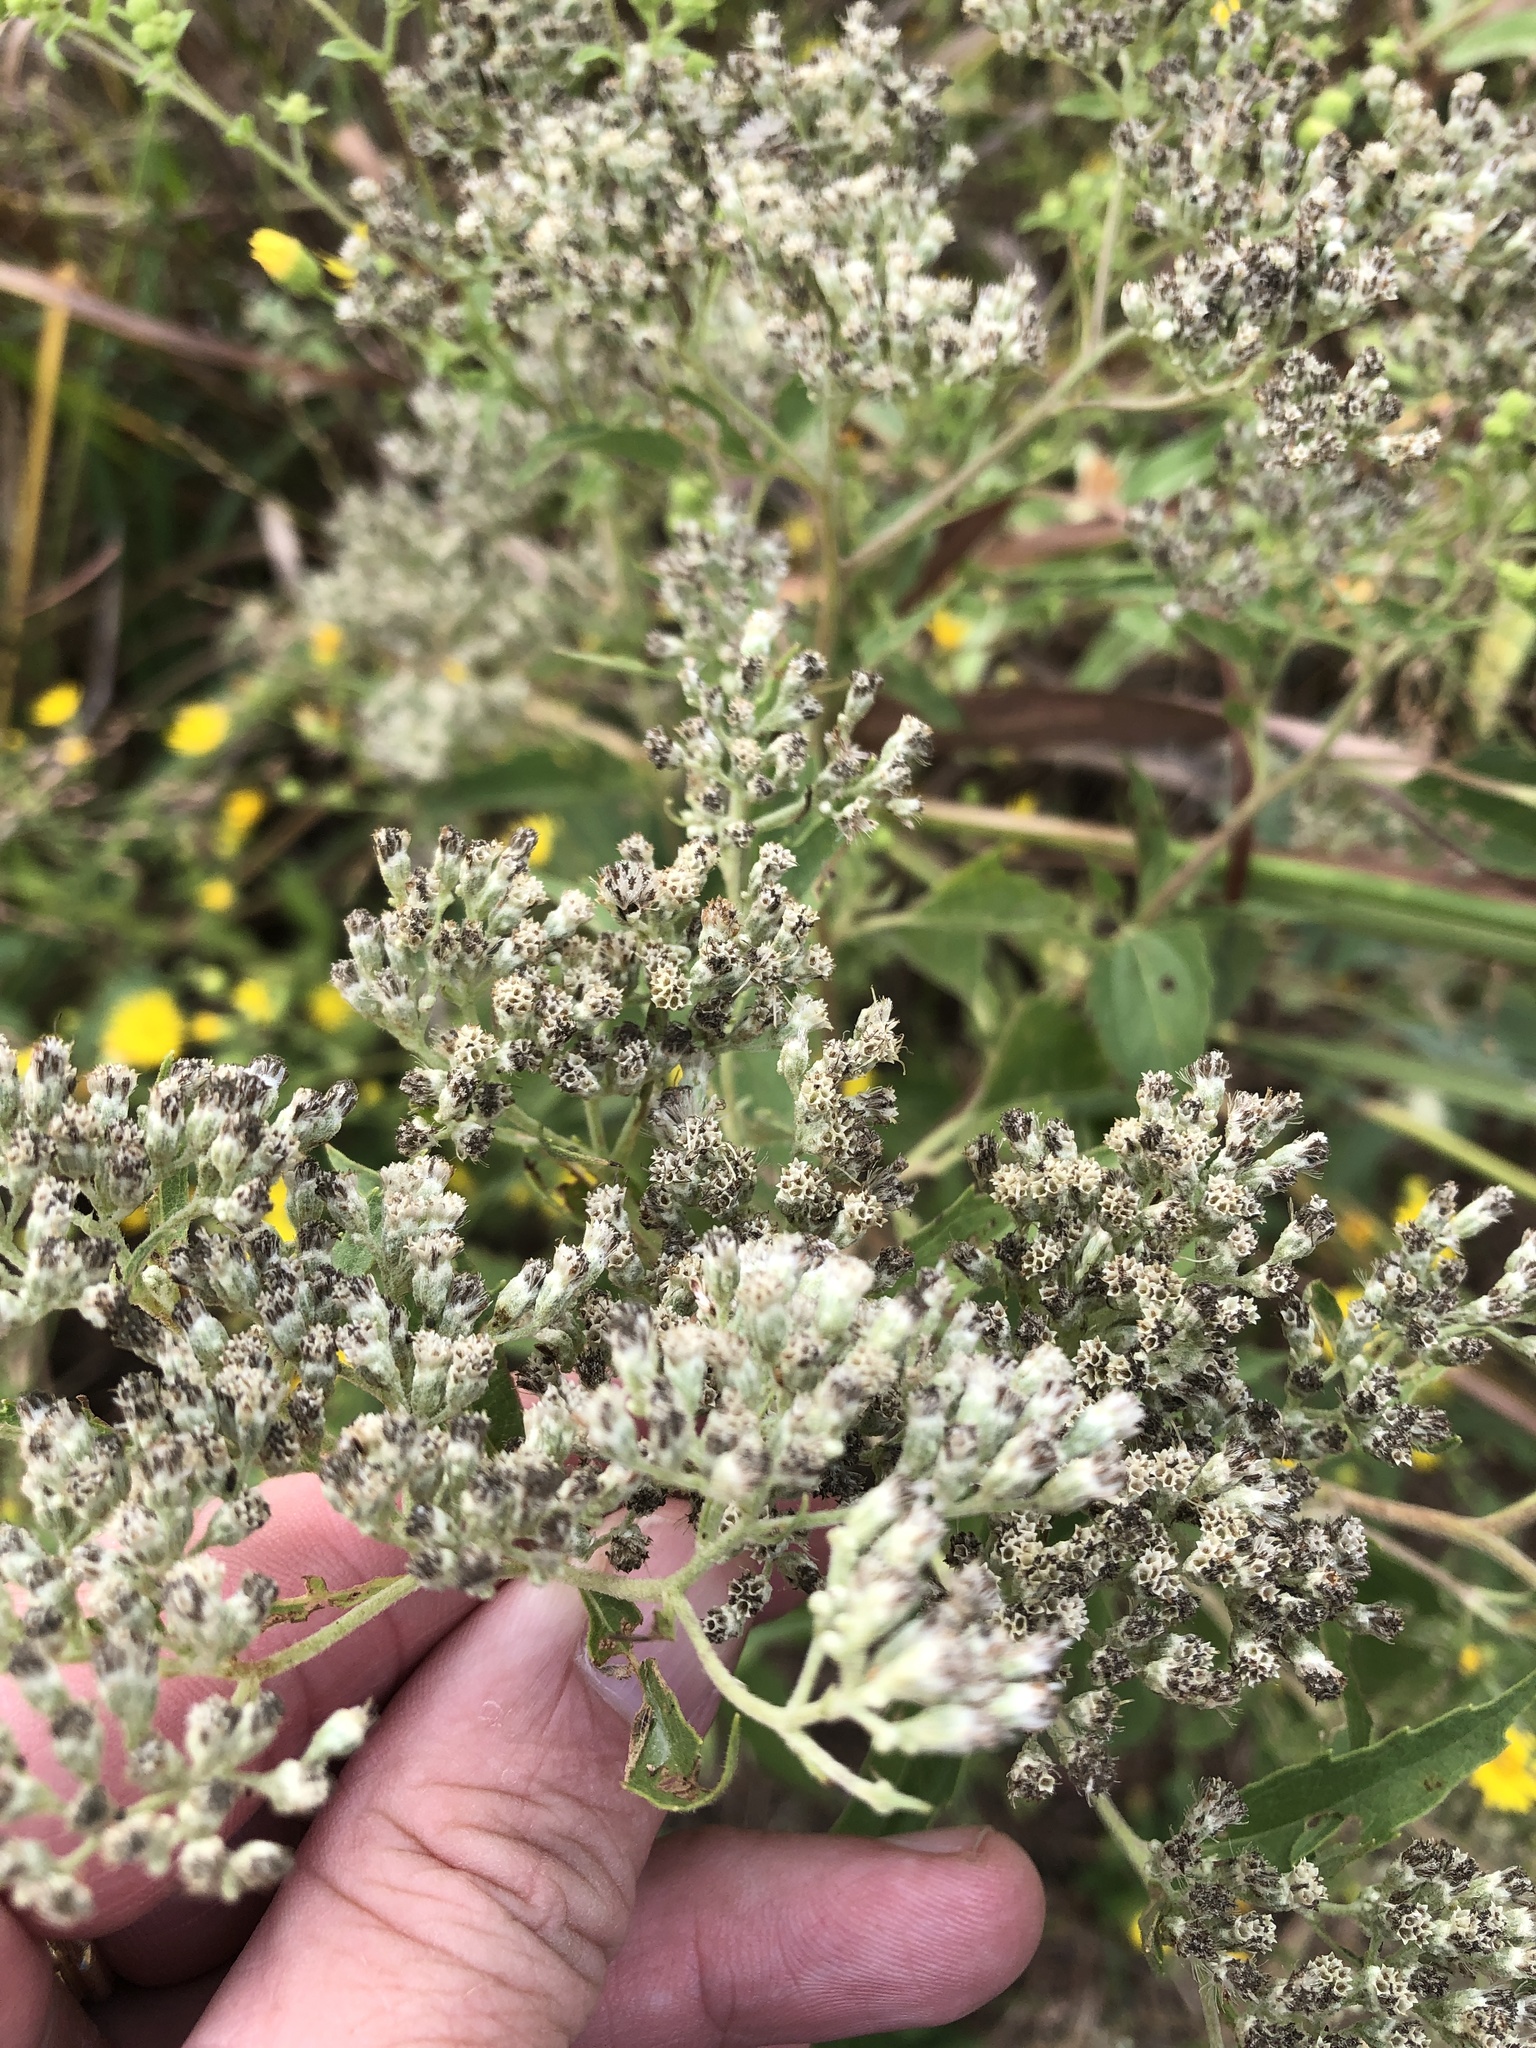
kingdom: Plantae
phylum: Tracheophyta
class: Magnoliopsida
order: Asterales
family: Asteraceae
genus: Eupatorium
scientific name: Eupatorium serotinum
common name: Late boneset
